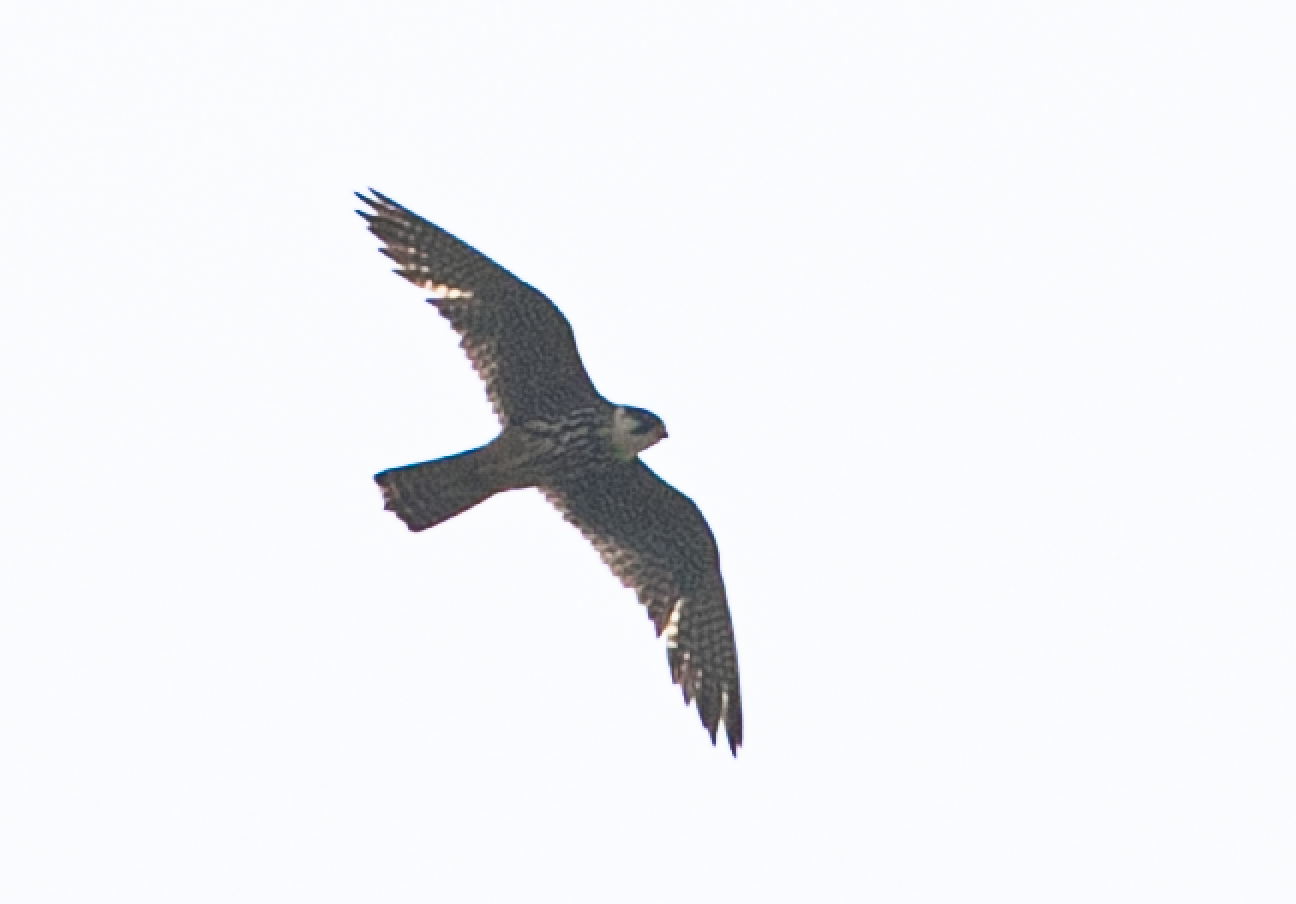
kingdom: Animalia
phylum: Chordata
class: Aves
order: Falconiformes
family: Falconidae
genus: Falco
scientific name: Falco subbuteo
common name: Eurasian hobby
